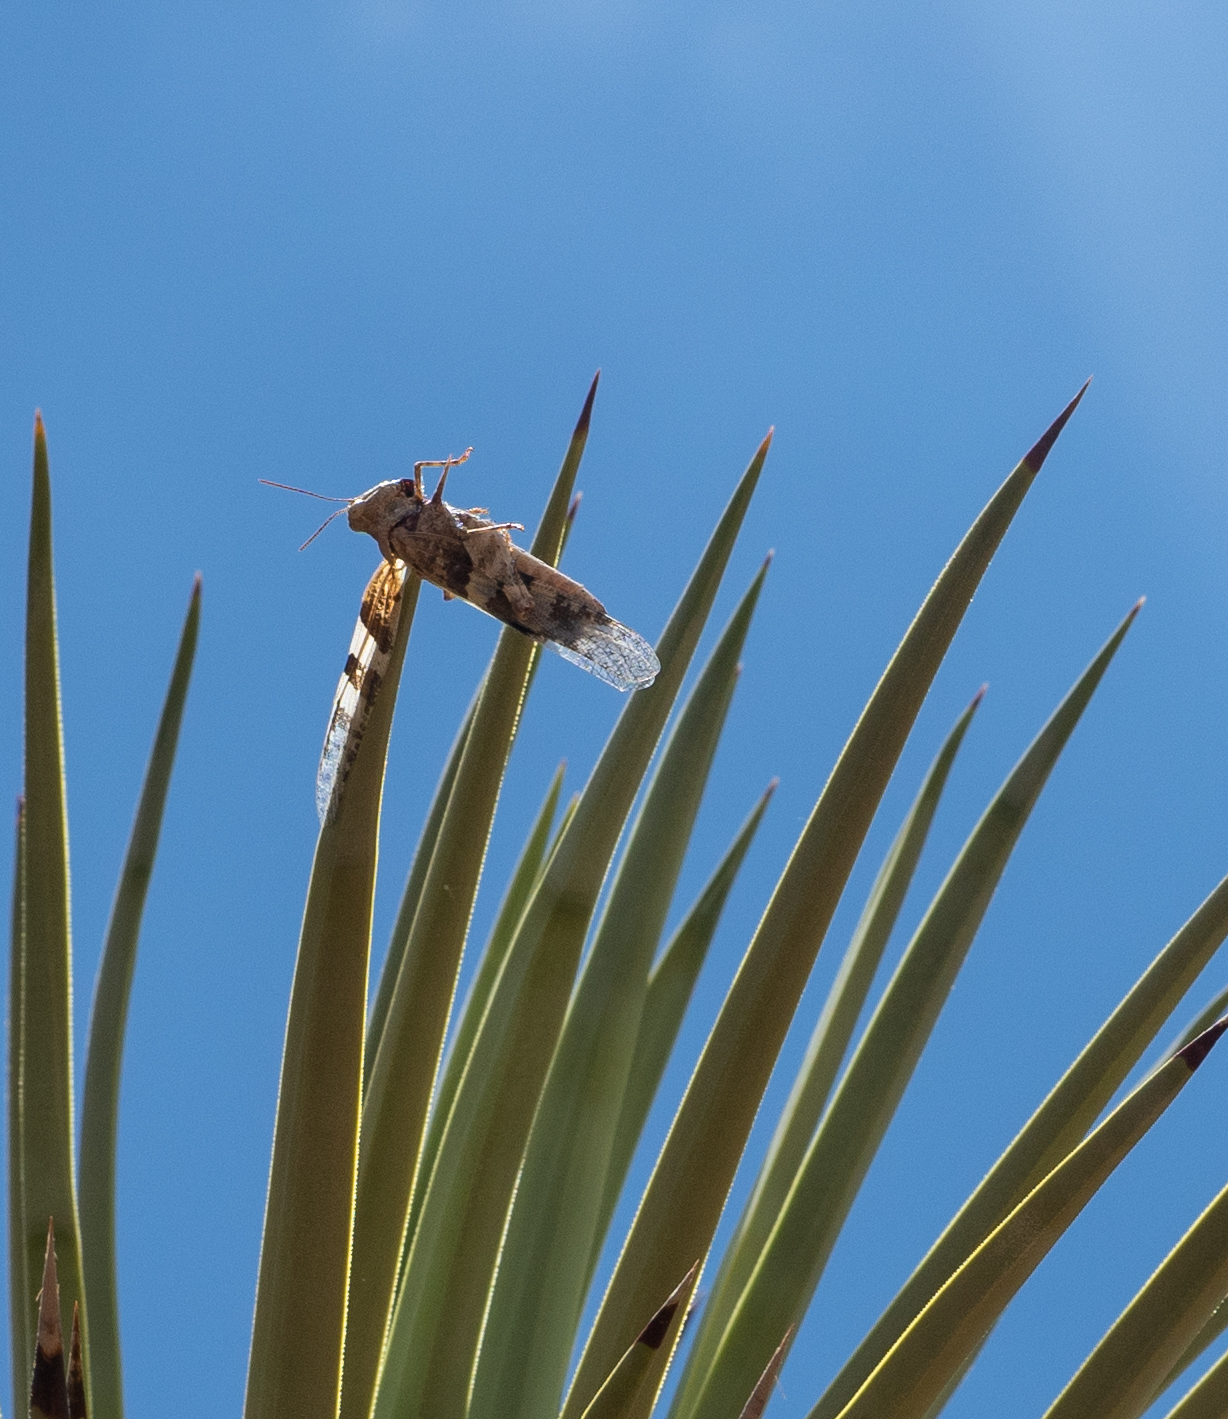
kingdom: Animalia
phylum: Arthropoda
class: Insecta
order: Orthoptera
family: Acrididae
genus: Trimerotropis
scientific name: Trimerotropis pallidipennis
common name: Pallid-winged grasshopper
